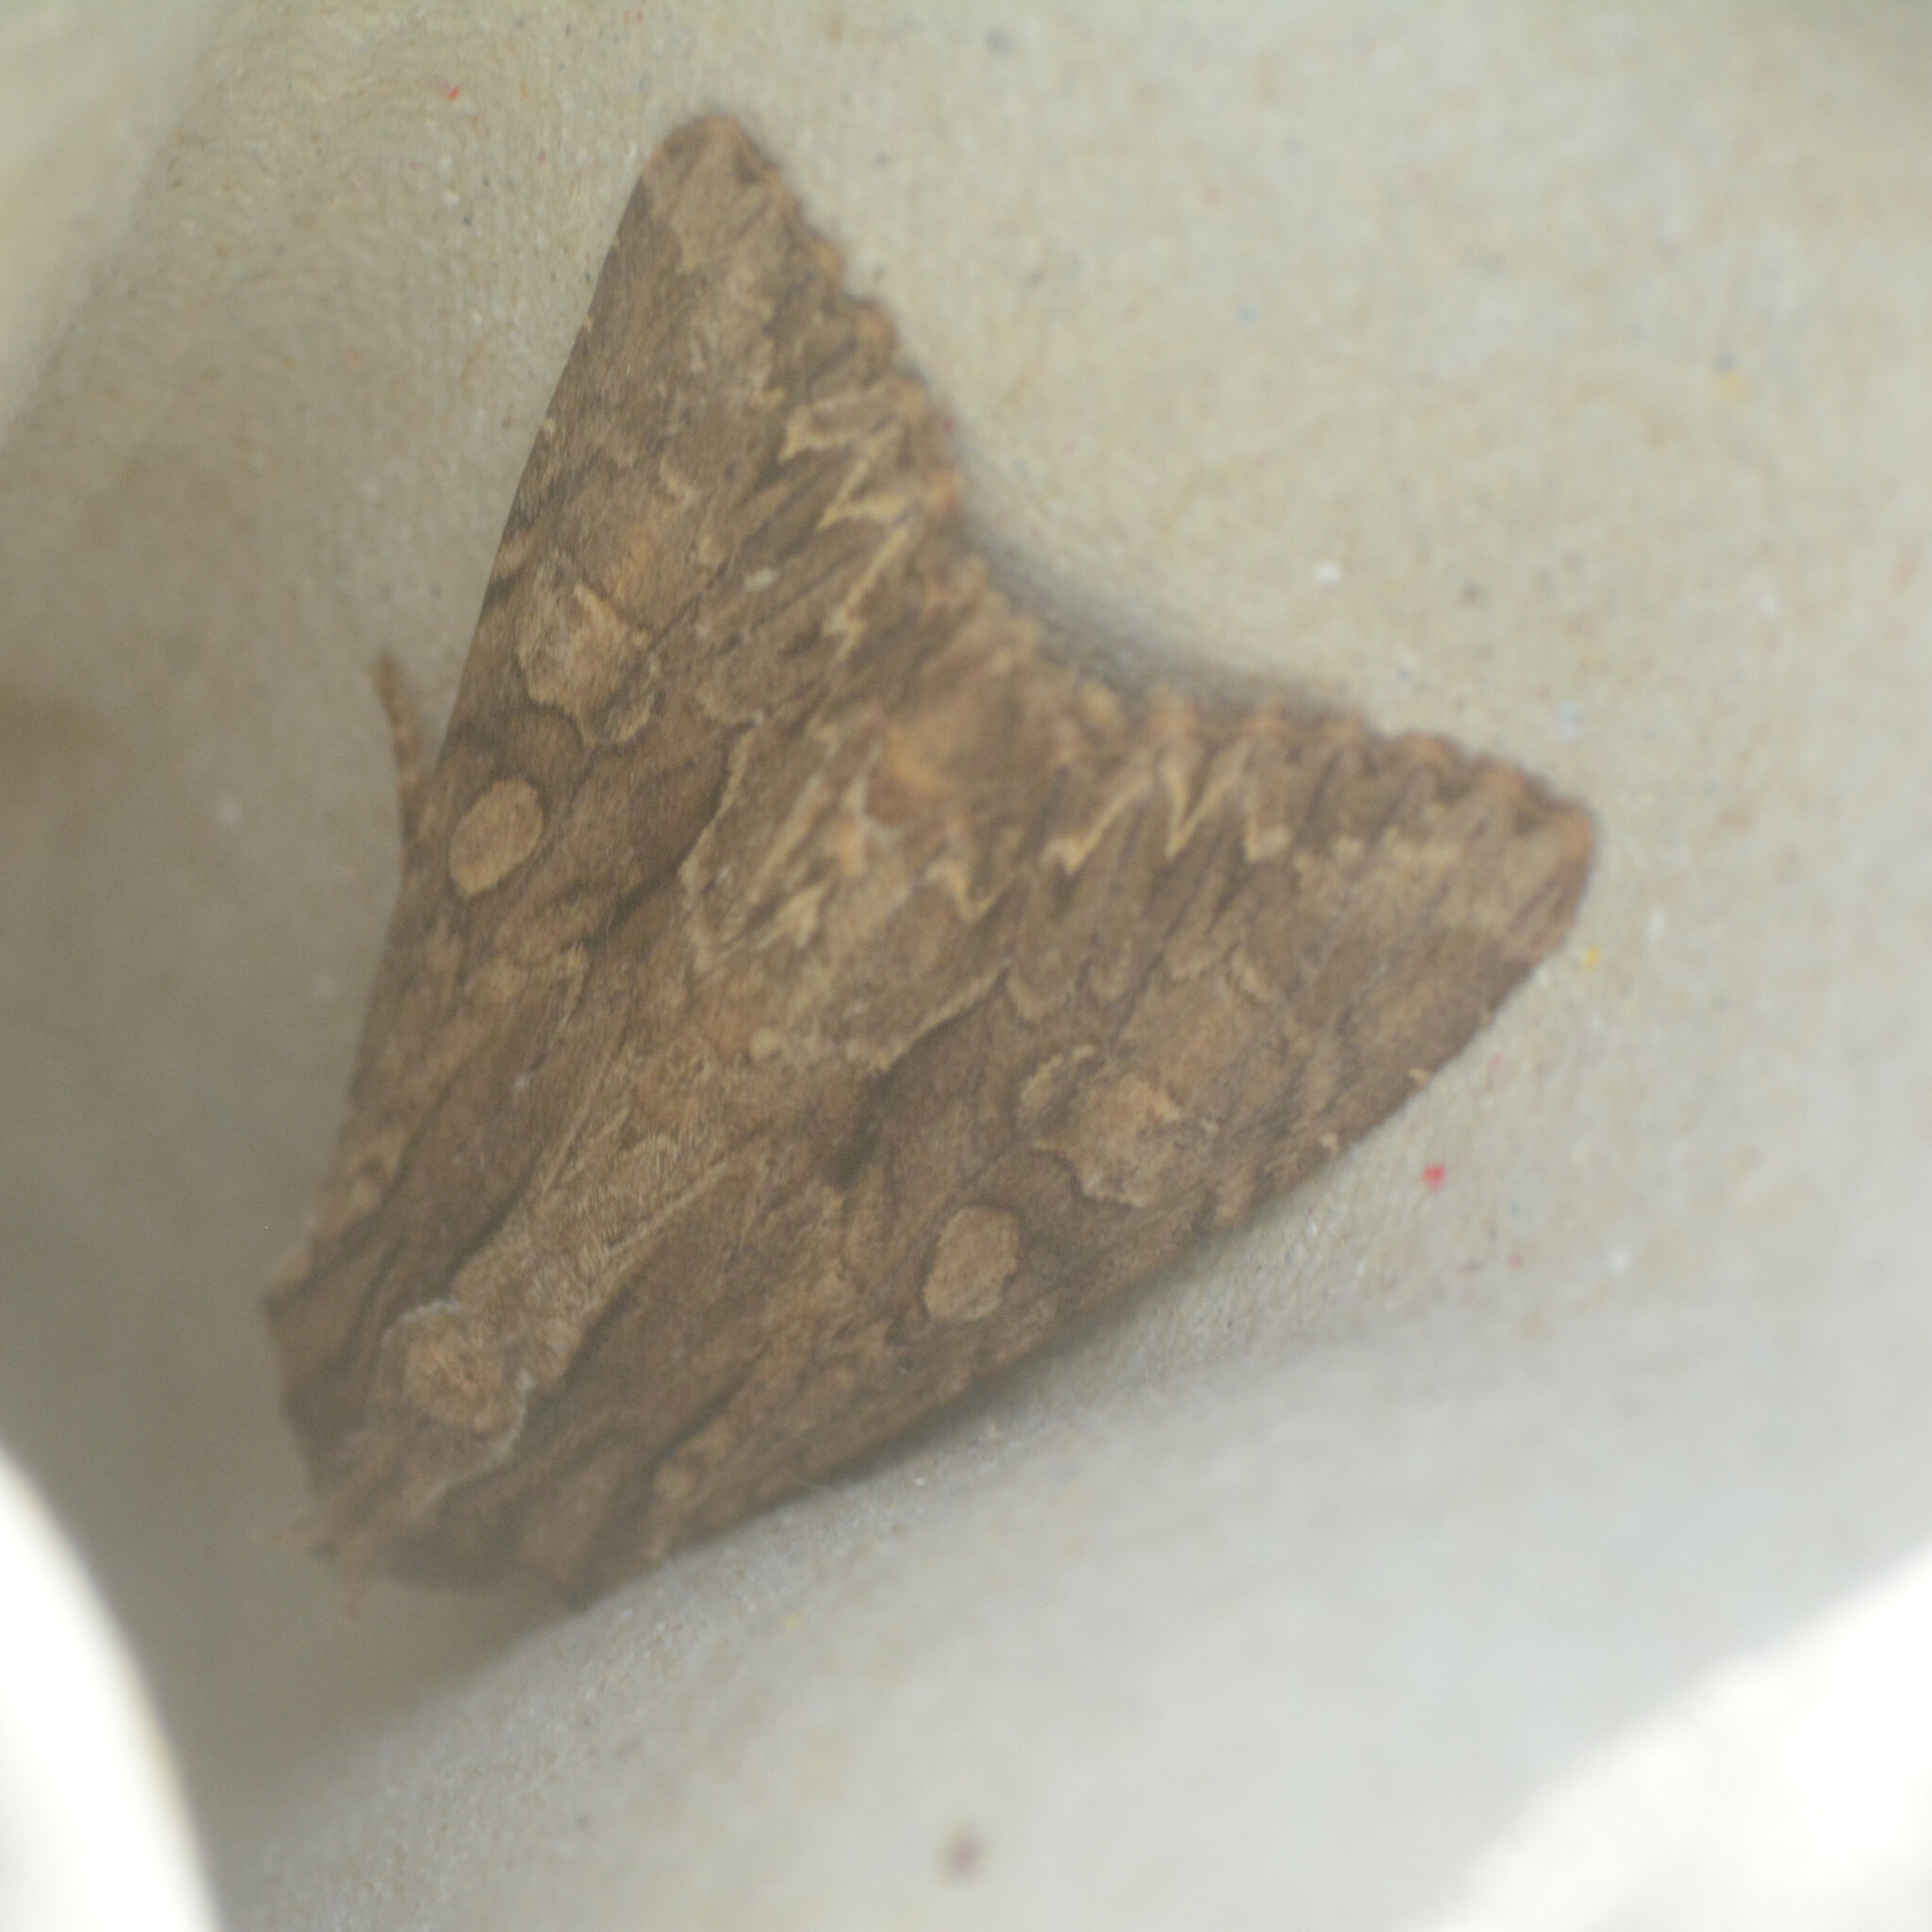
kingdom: Animalia
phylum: Arthropoda
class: Insecta
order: Lepidoptera
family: Noctuidae
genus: Apamea
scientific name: Apamea monoglypha
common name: Dark arches
